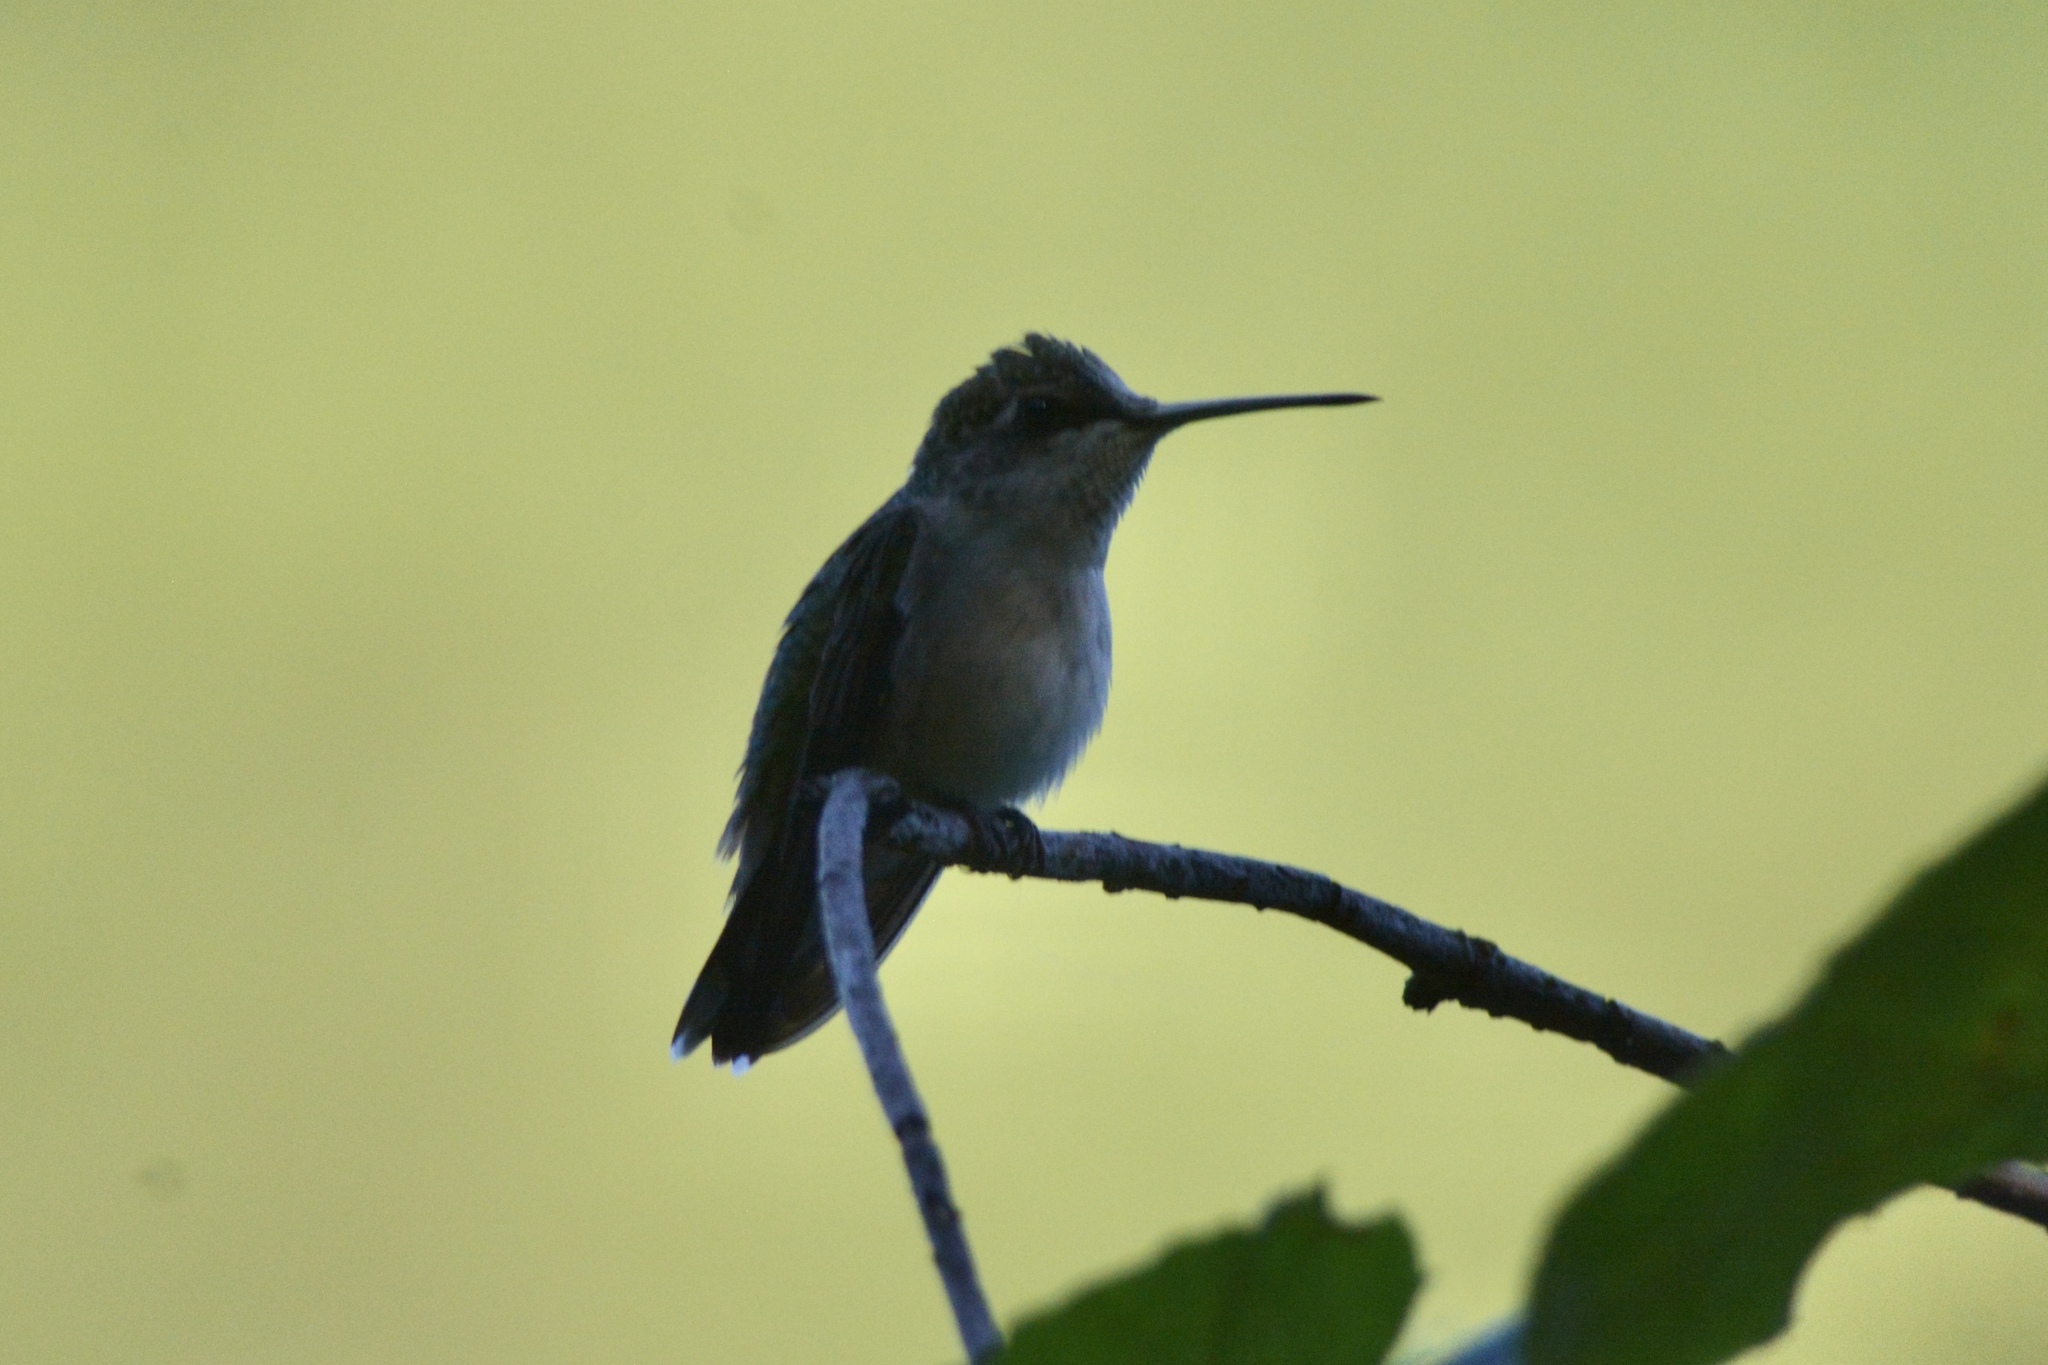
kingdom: Animalia
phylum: Chordata
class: Aves
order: Apodiformes
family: Trochilidae
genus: Archilochus
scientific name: Archilochus colubris
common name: Ruby-throated hummingbird
